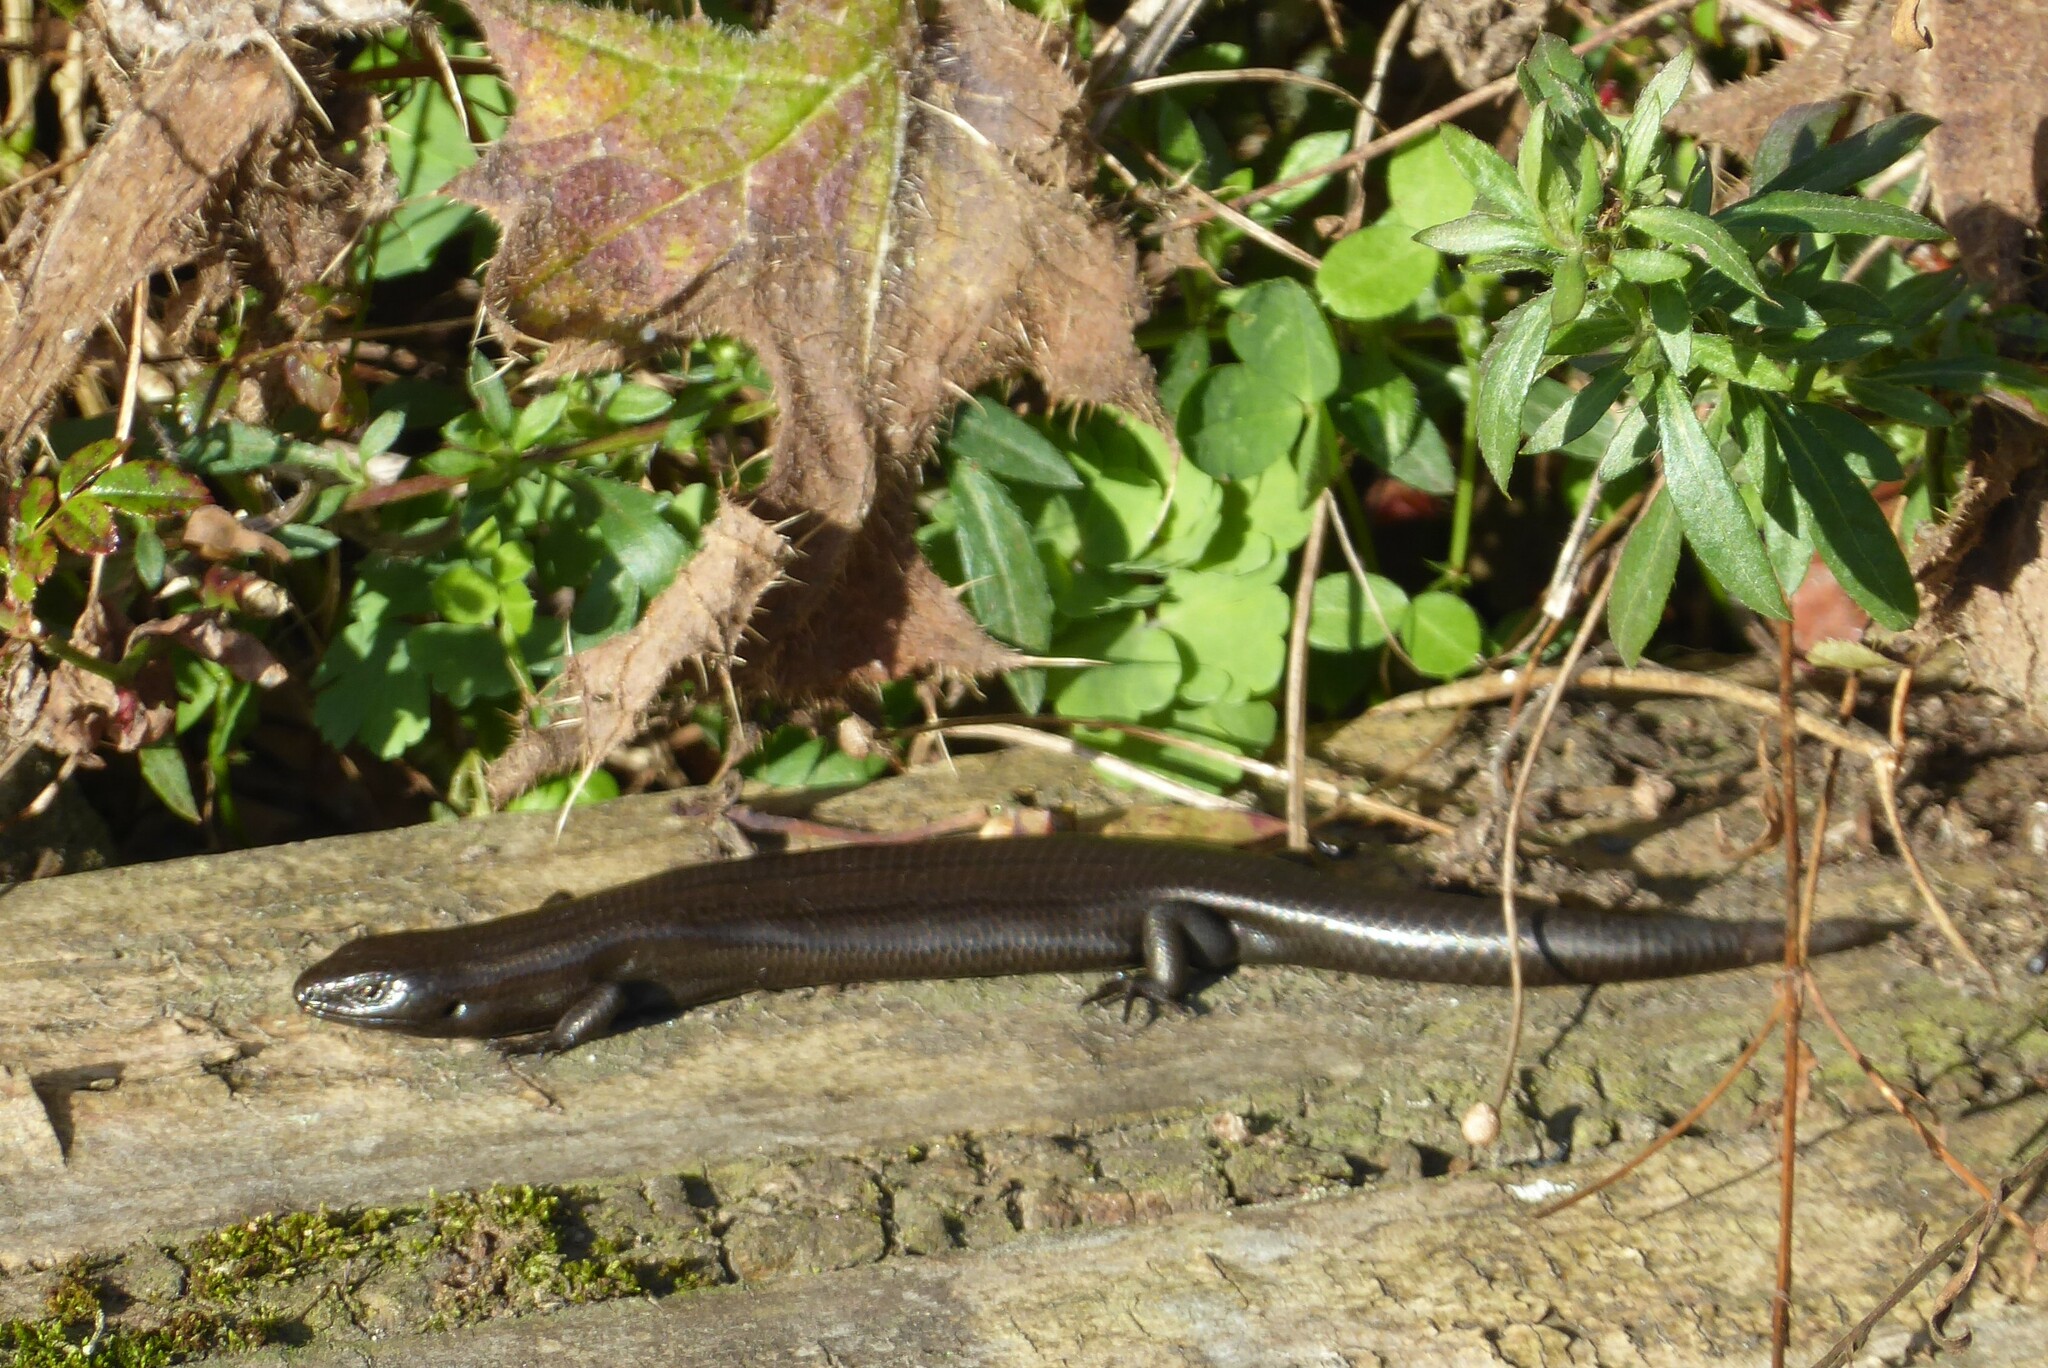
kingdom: Animalia
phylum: Chordata
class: Squamata
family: Scincidae
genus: Oligosoma
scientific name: Oligosoma polychroma
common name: Common new zealand skink
